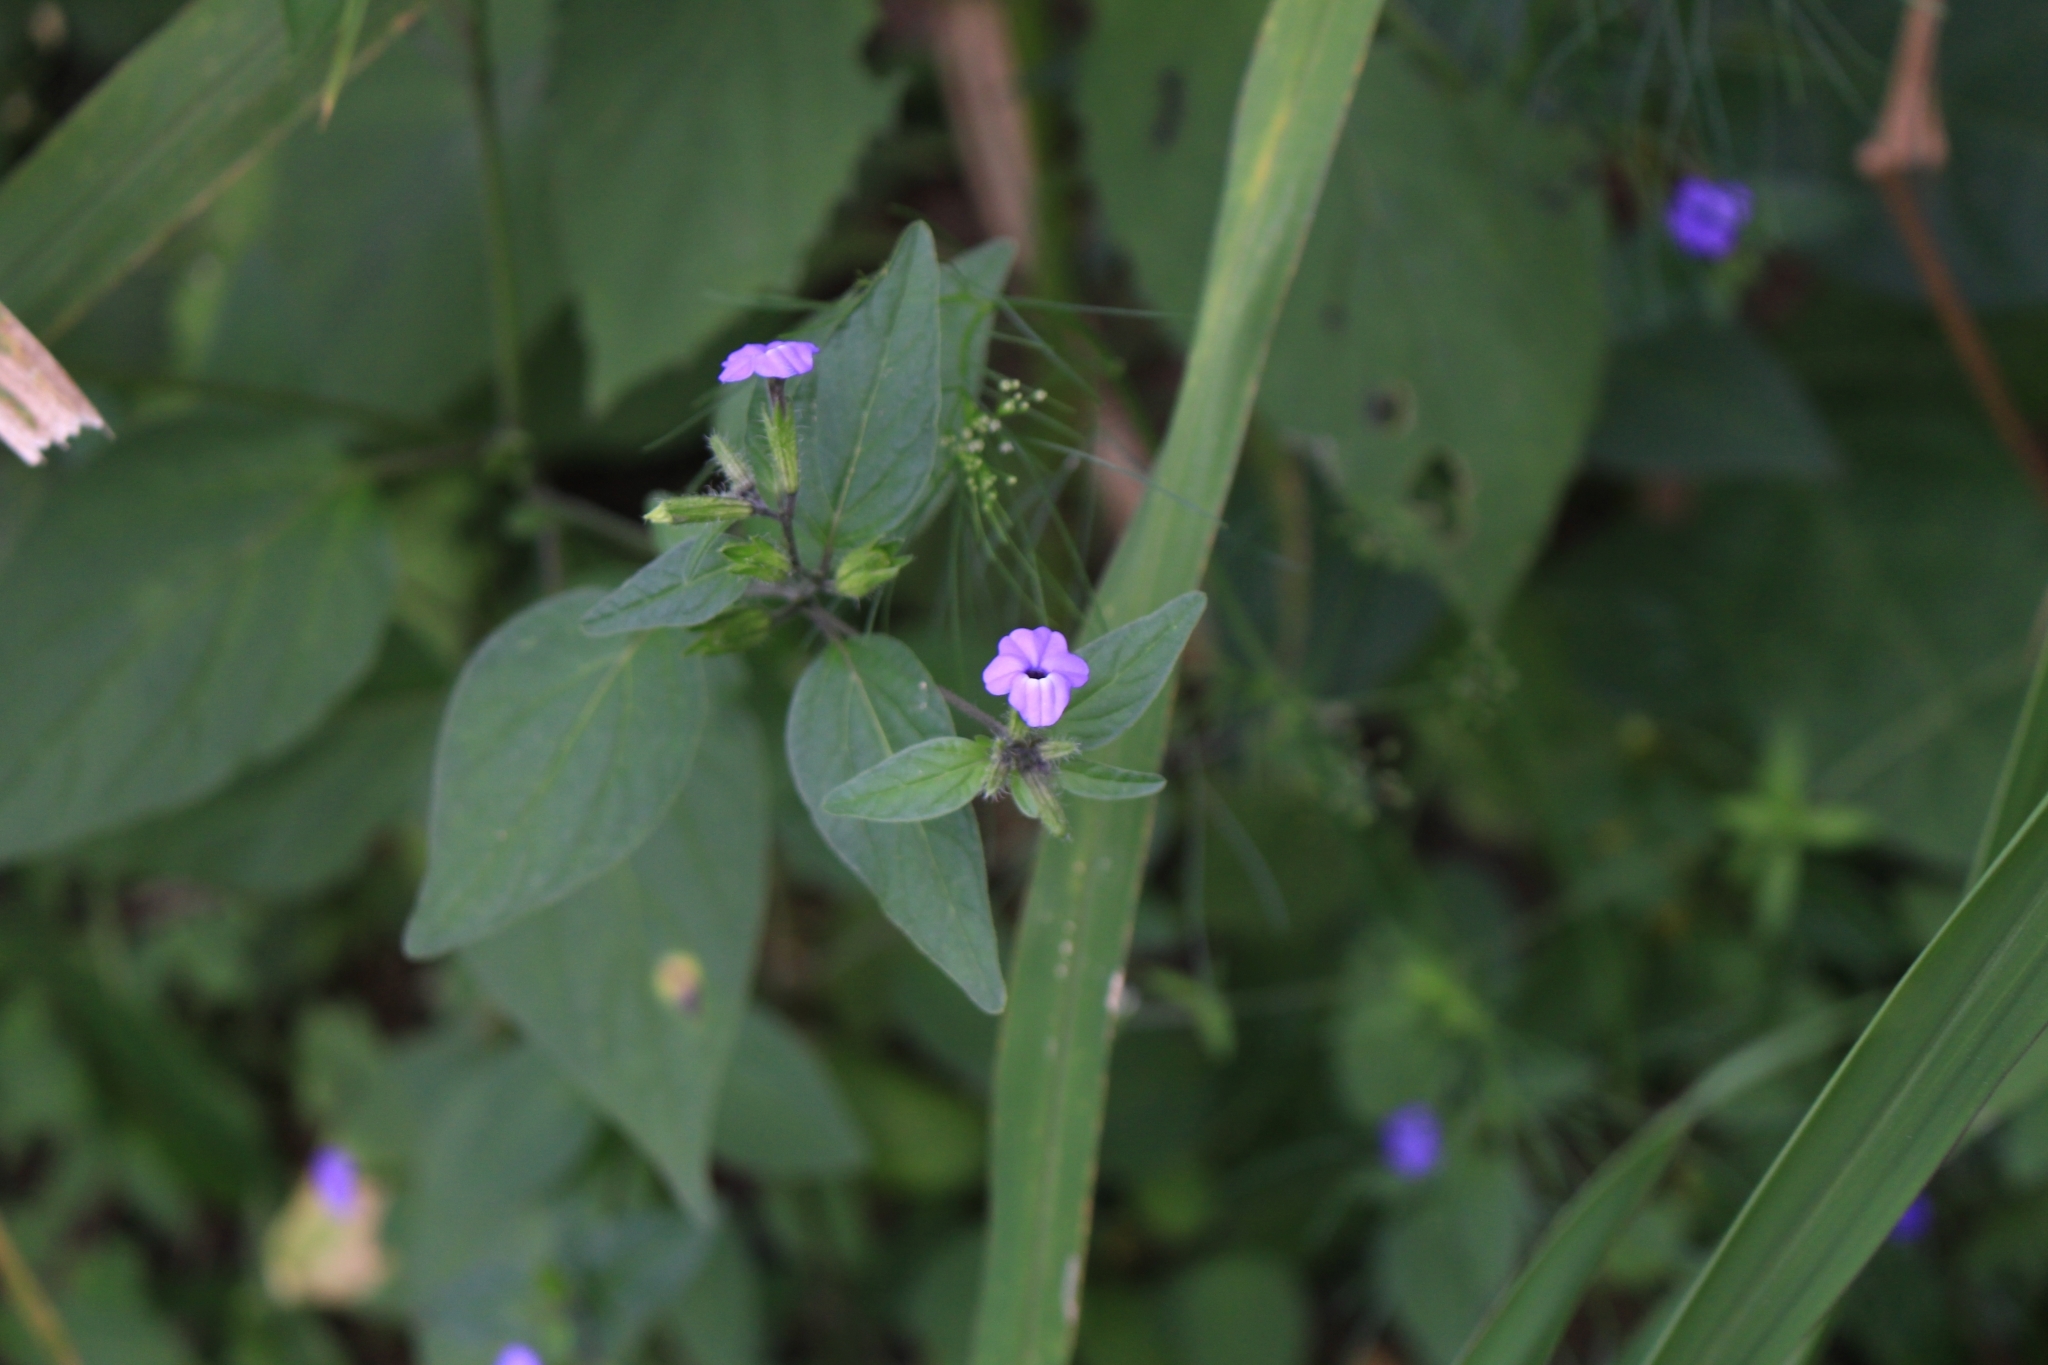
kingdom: Plantae
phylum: Tracheophyta
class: Magnoliopsida
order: Solanales
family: Solanaceae
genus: Browallia
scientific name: Browallia americana
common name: Jamaican forget-me-not
